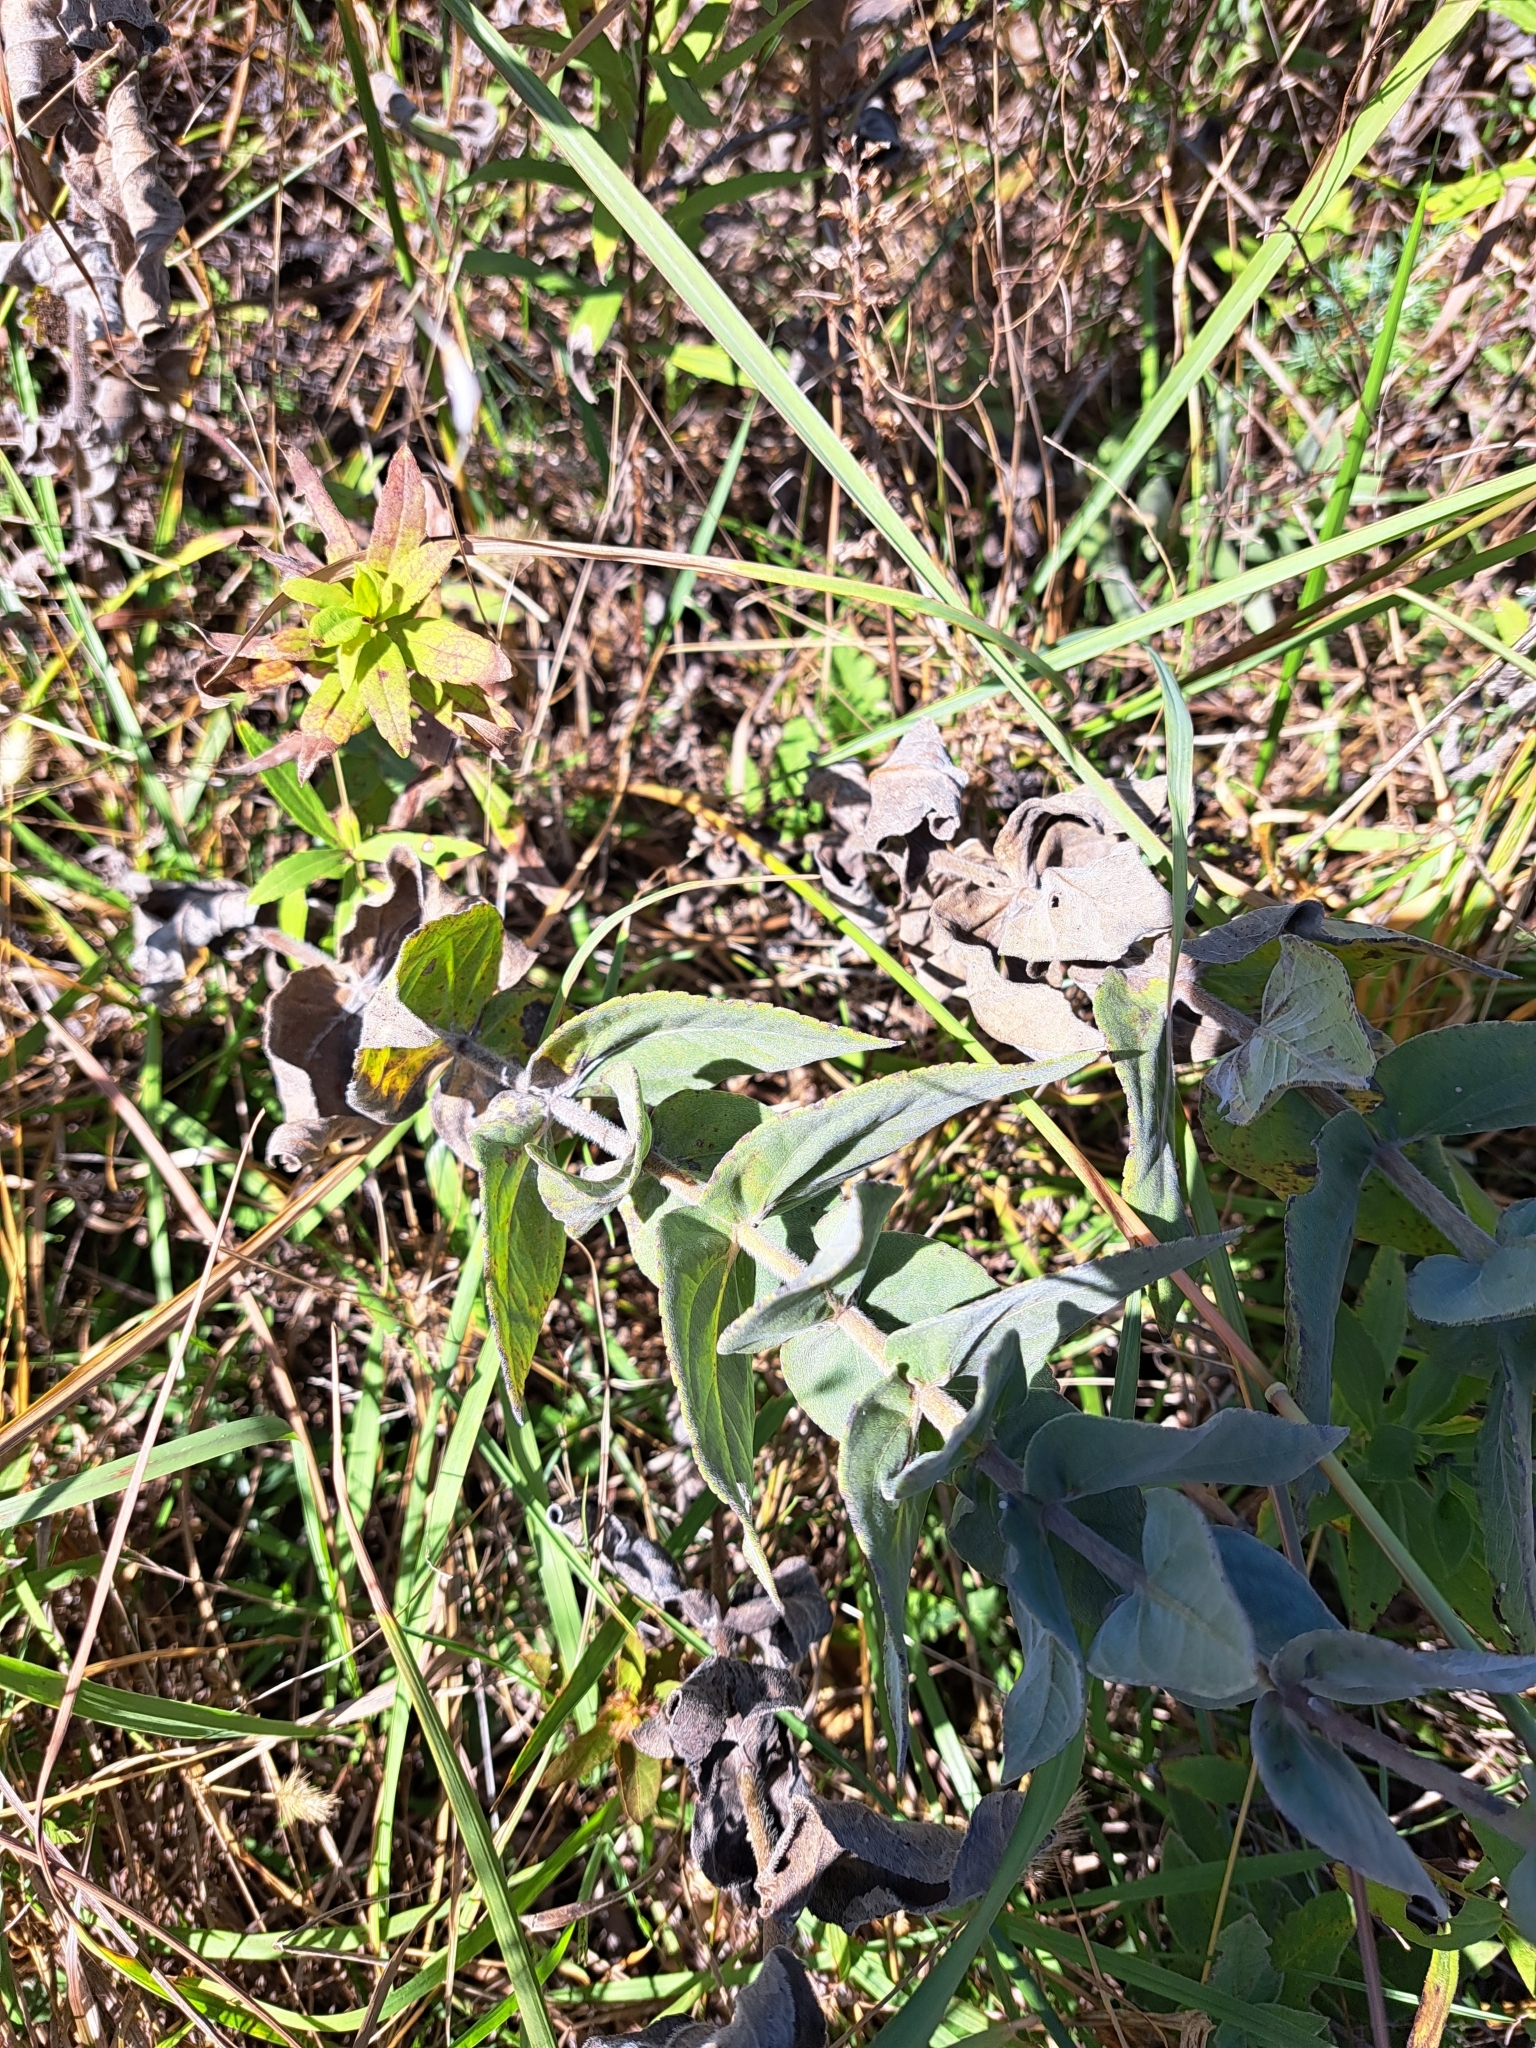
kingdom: Plantae
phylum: Tracheophyta
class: Magnoliopsida
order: Asterales
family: Asteraceae
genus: Helianthus
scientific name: Helianthus mollis
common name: Ashy sunflower
